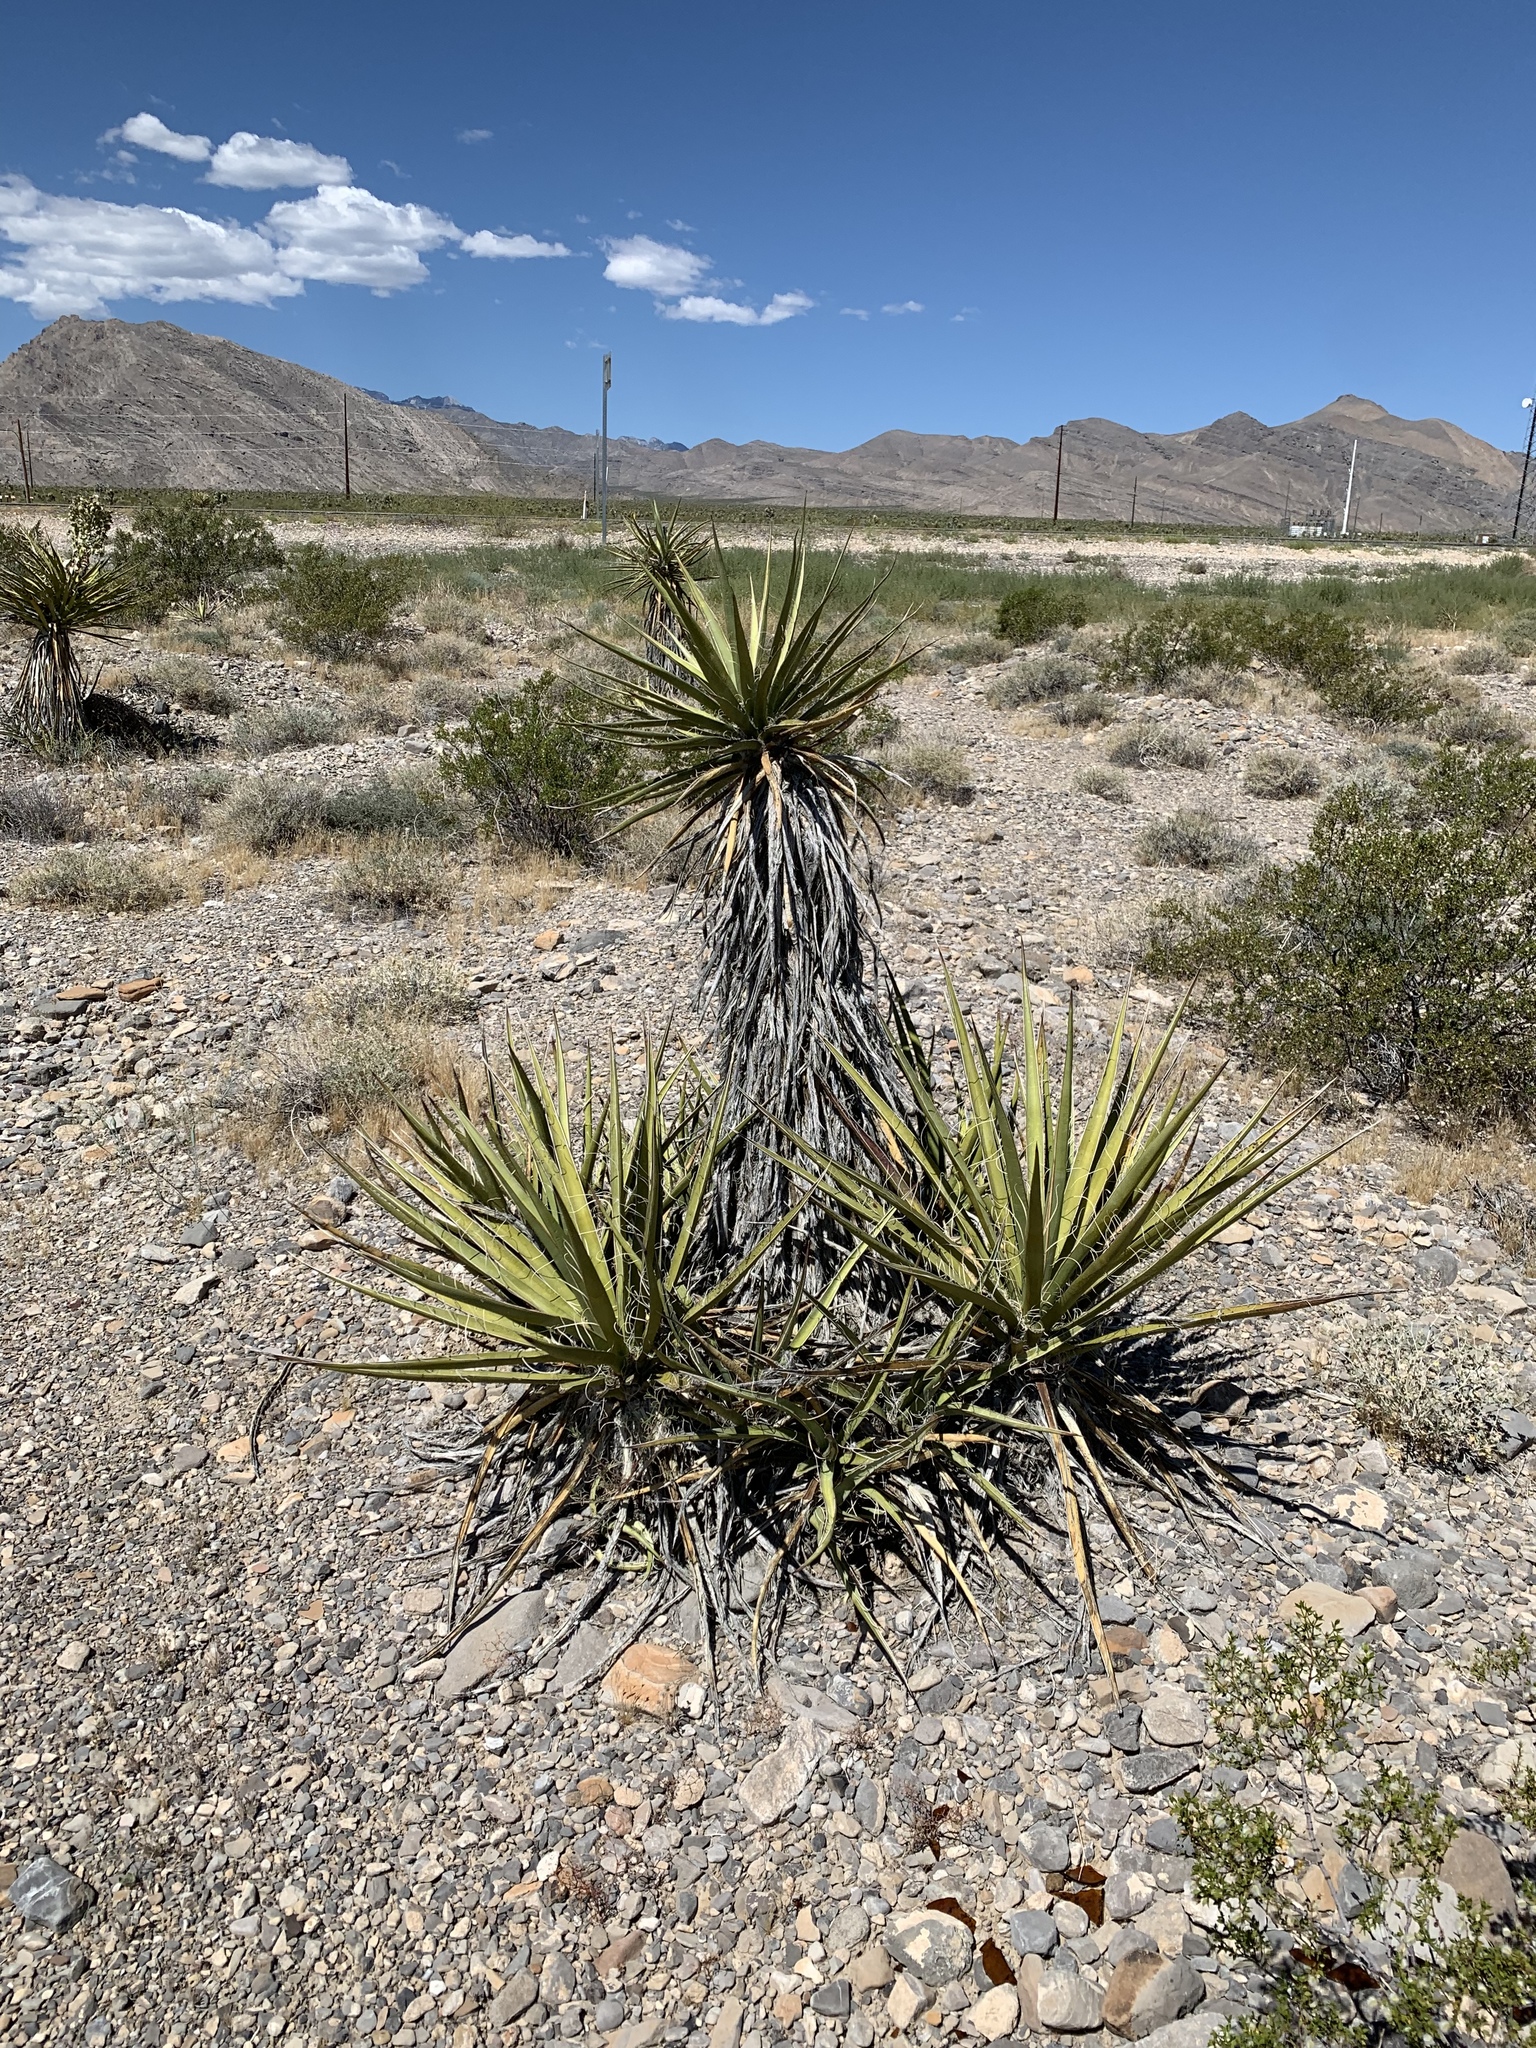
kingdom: Plantae
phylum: Tracheophyta
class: Liliopsida
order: Asparagales
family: Asparagaceae
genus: Yucca
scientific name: Yucca schidigera
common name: Mojave yucca
